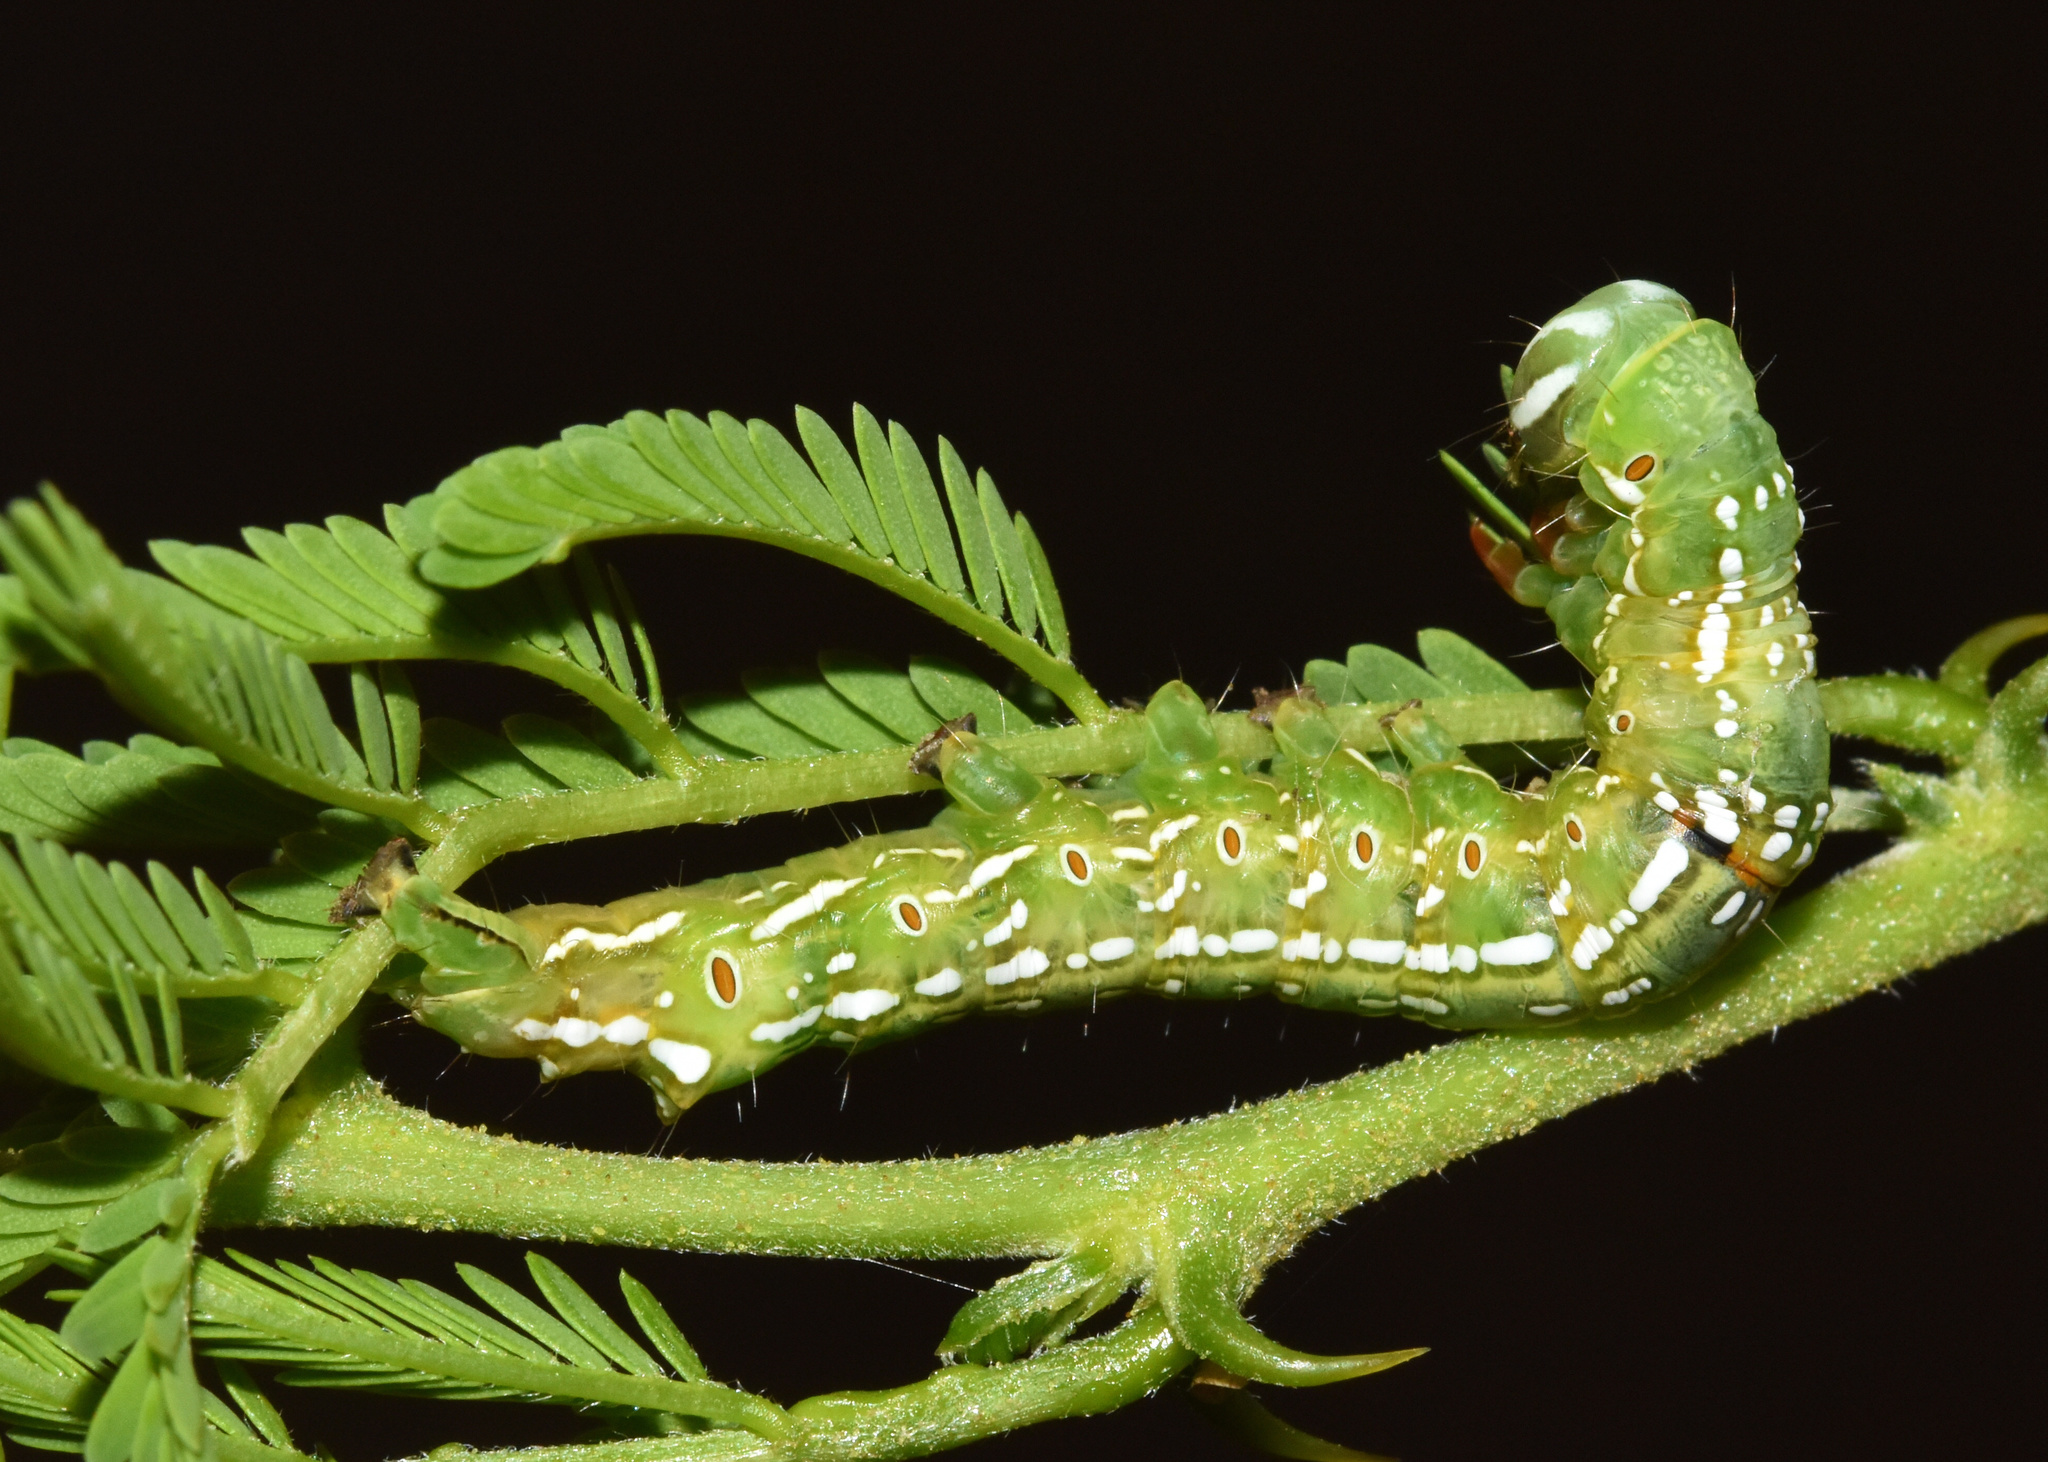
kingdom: Animalia
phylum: Arthropoda
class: Insecta
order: Lepidoptera
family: Erebidae
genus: Sphingomorpha
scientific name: Sphingomorpha chlorea
